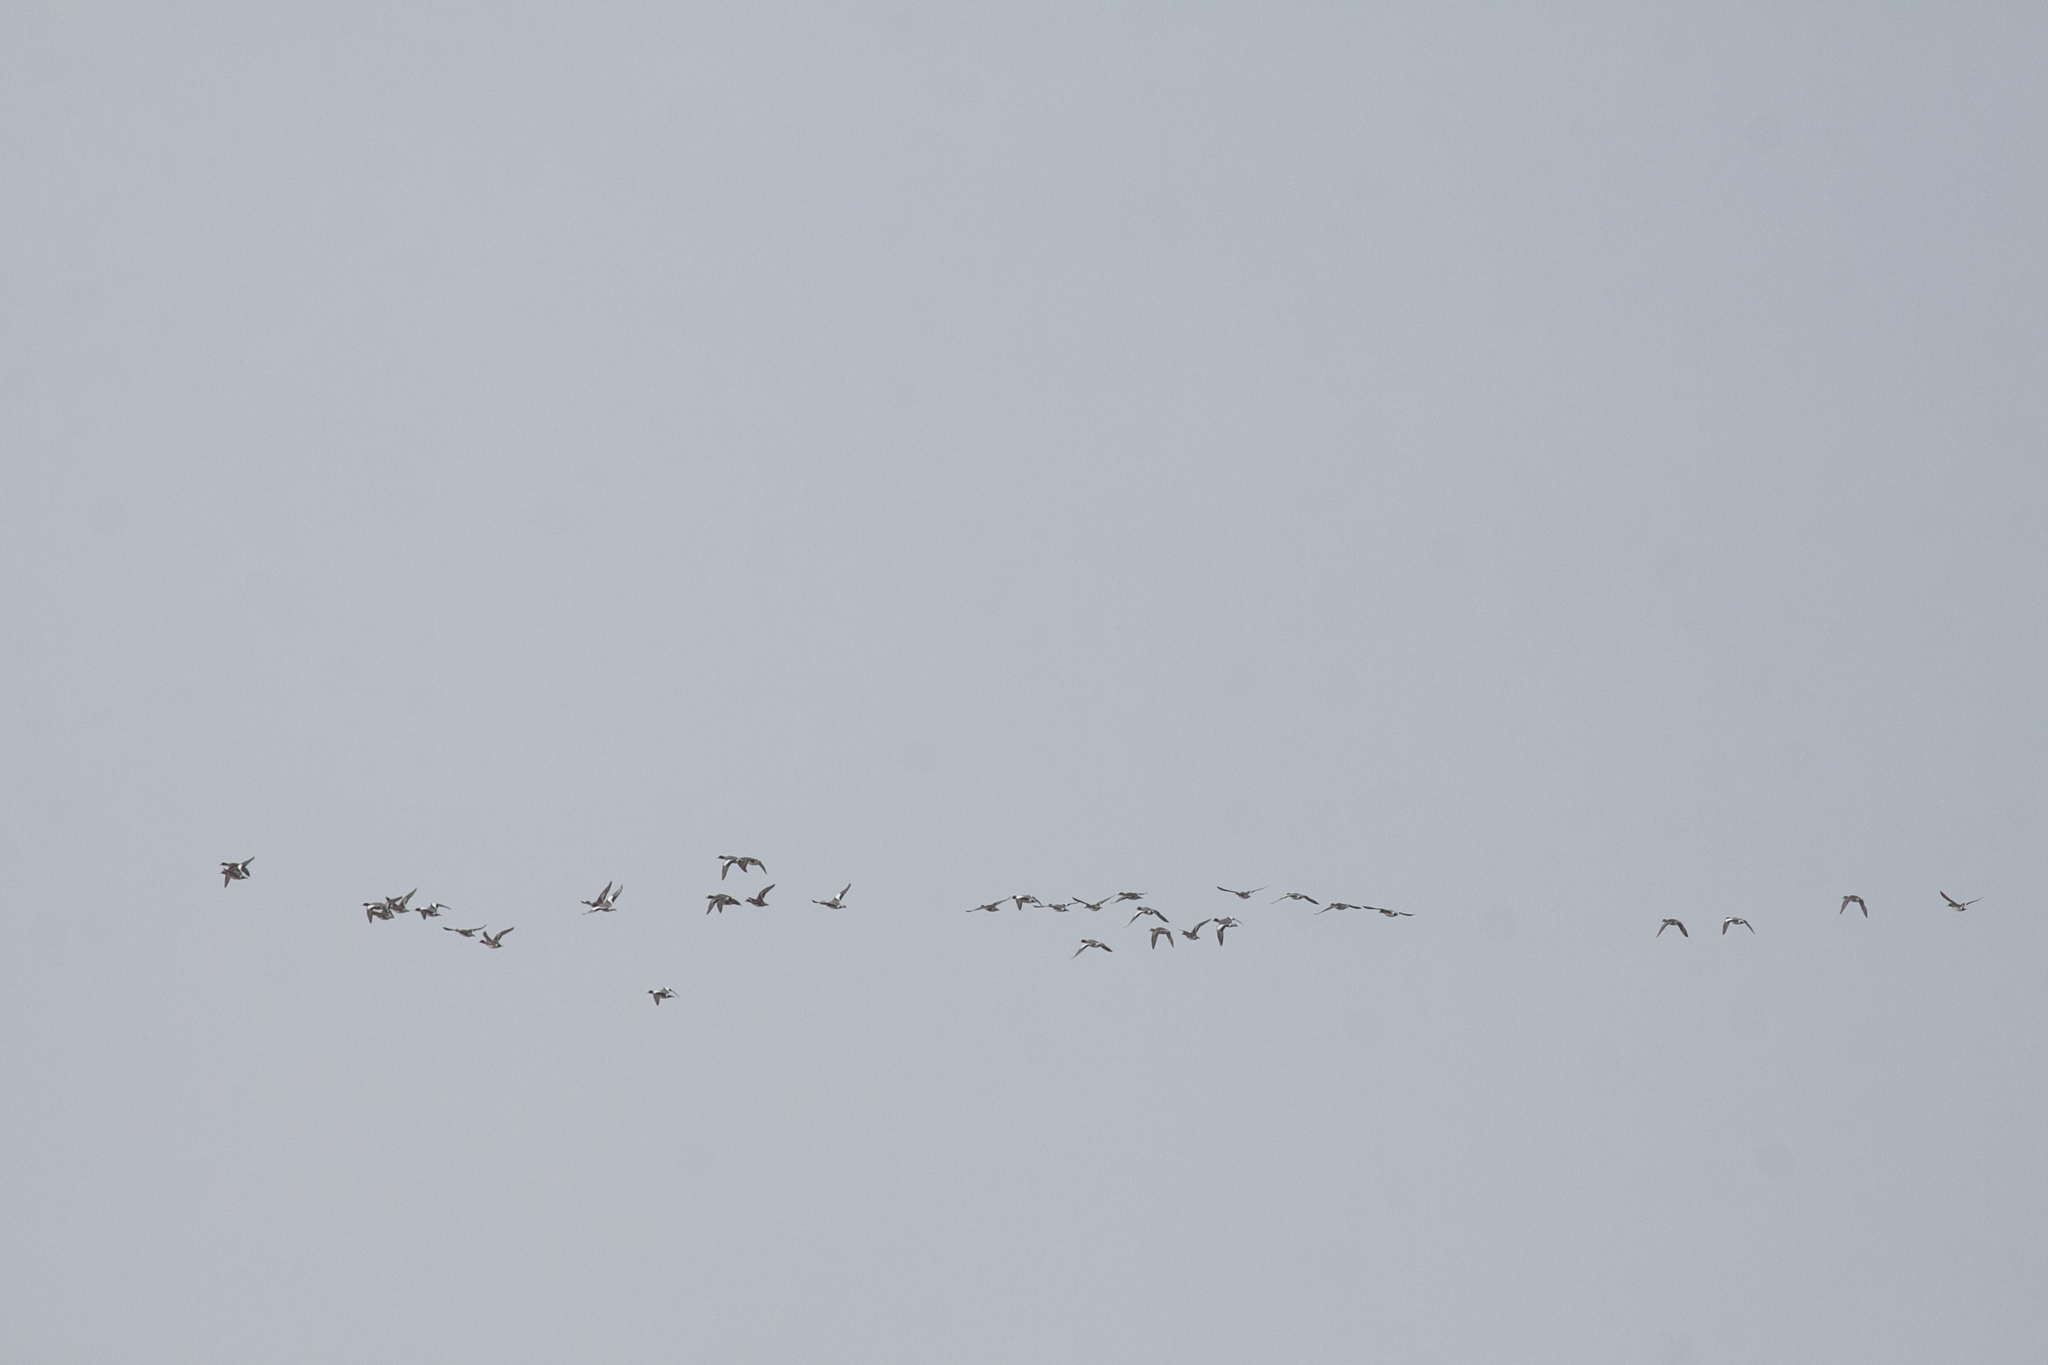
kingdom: Animalia
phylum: Chordata
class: Aves
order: Anseriformes
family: Anatidae
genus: Mareca
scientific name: Mareca penelope
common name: Eurasian wigeon
